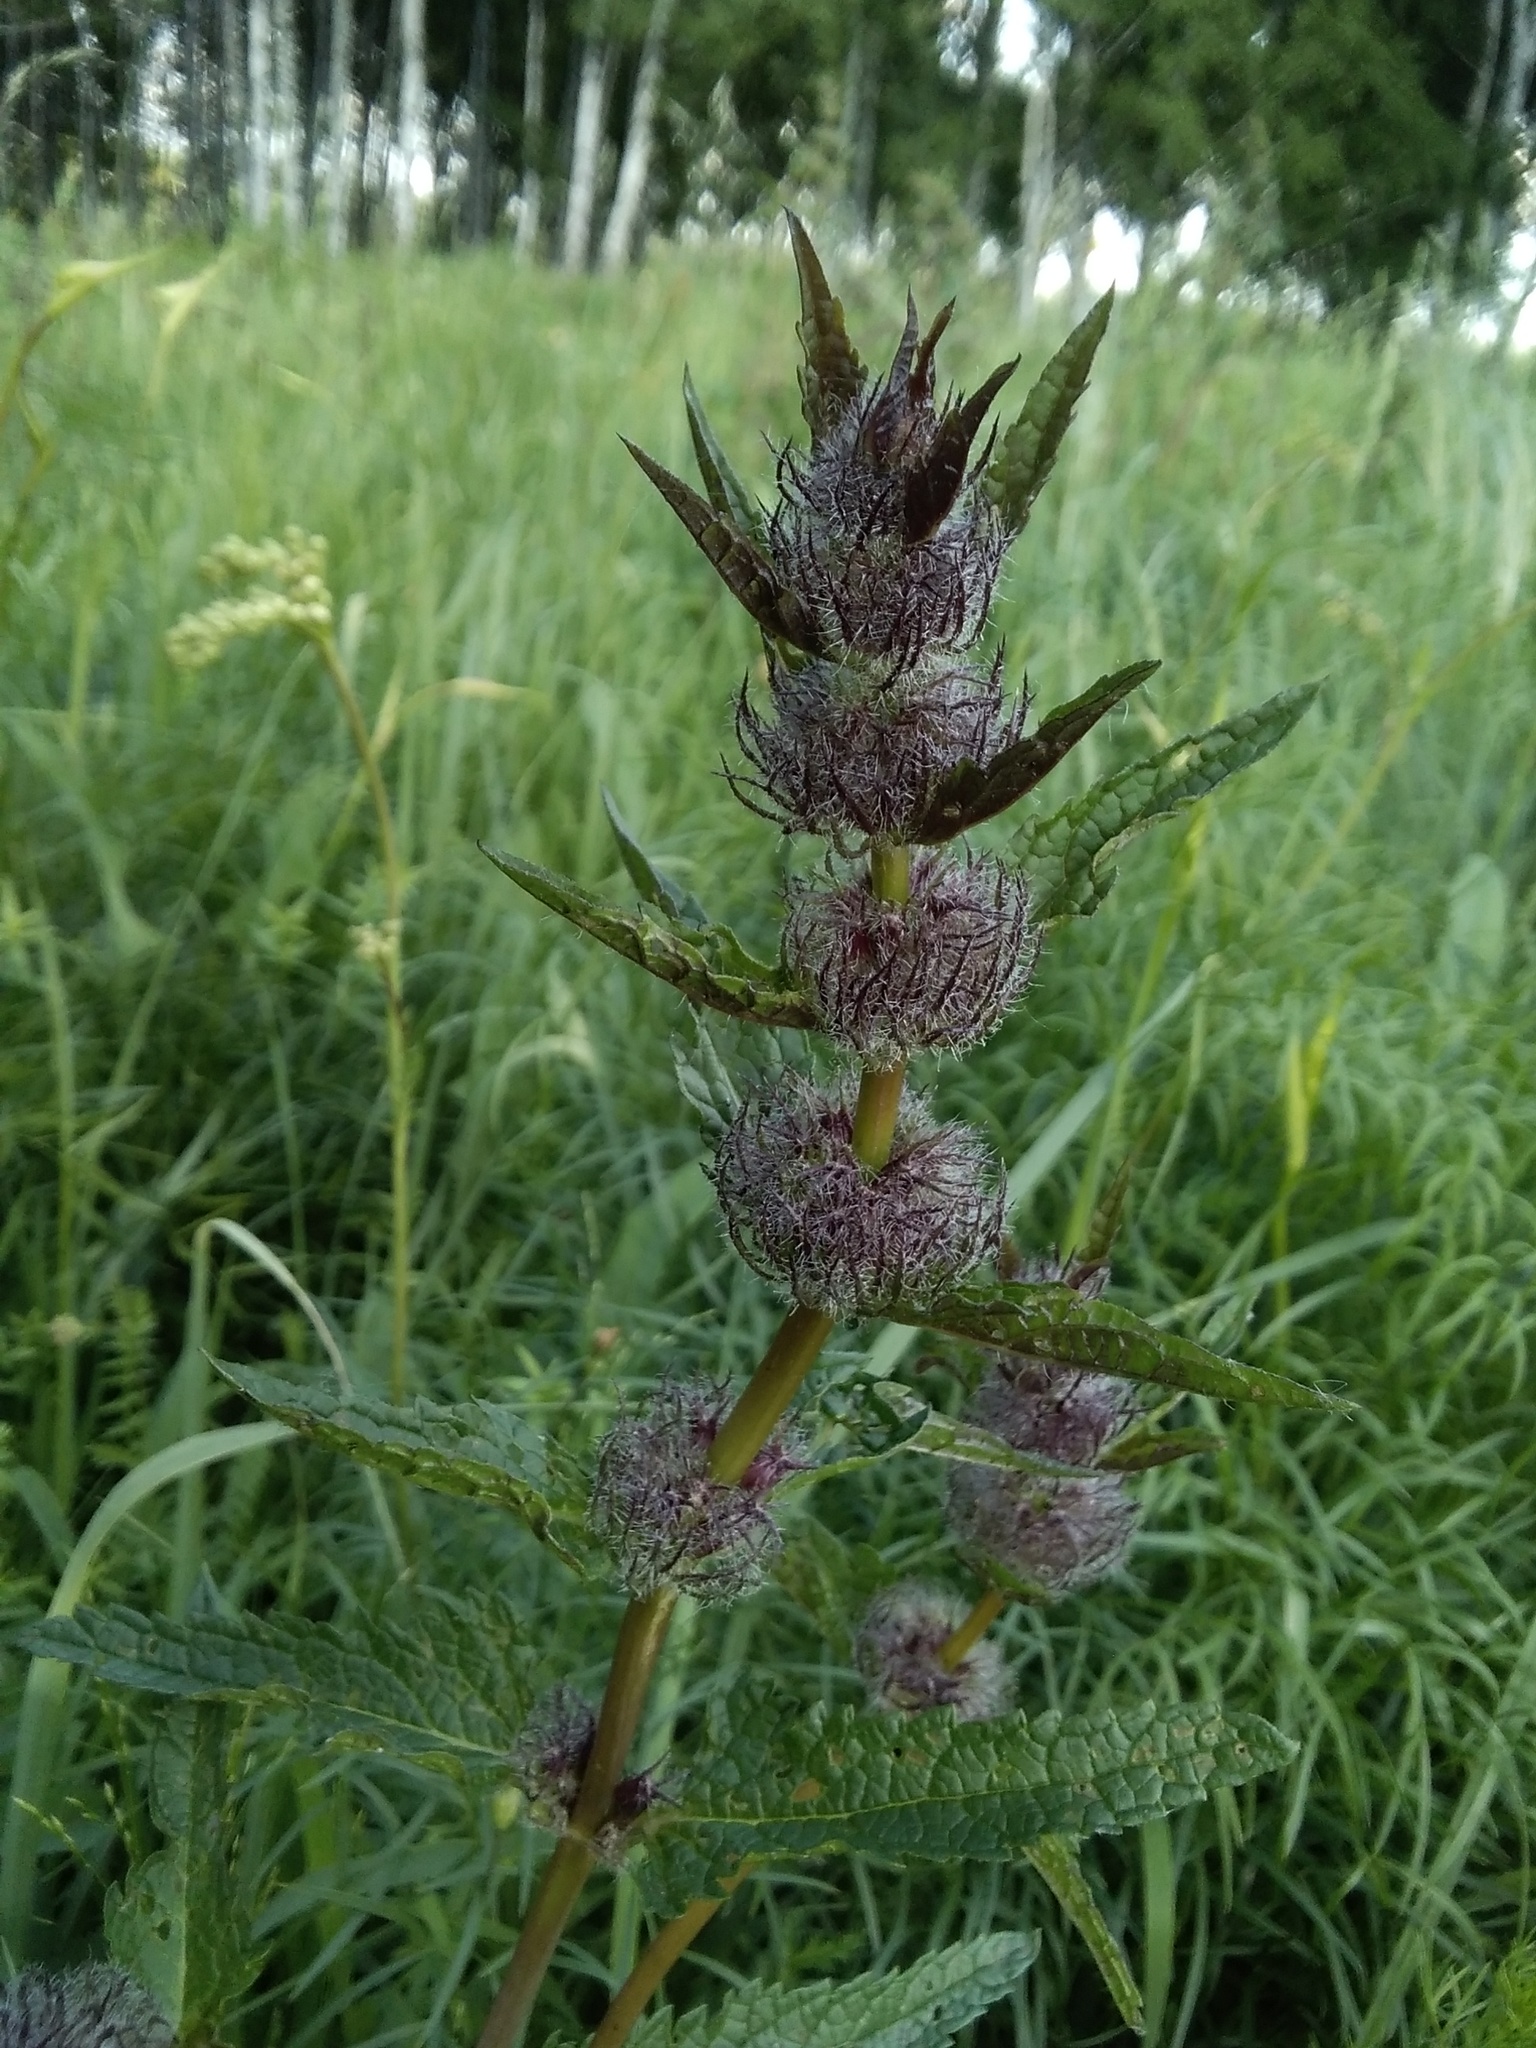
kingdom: Plantae
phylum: Tracheophyta
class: Magnoliopsida
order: Lamiales
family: Lamiaceae
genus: Phlomoides
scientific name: Phlomoides tuberosa
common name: Tuberous jerusalem sage
